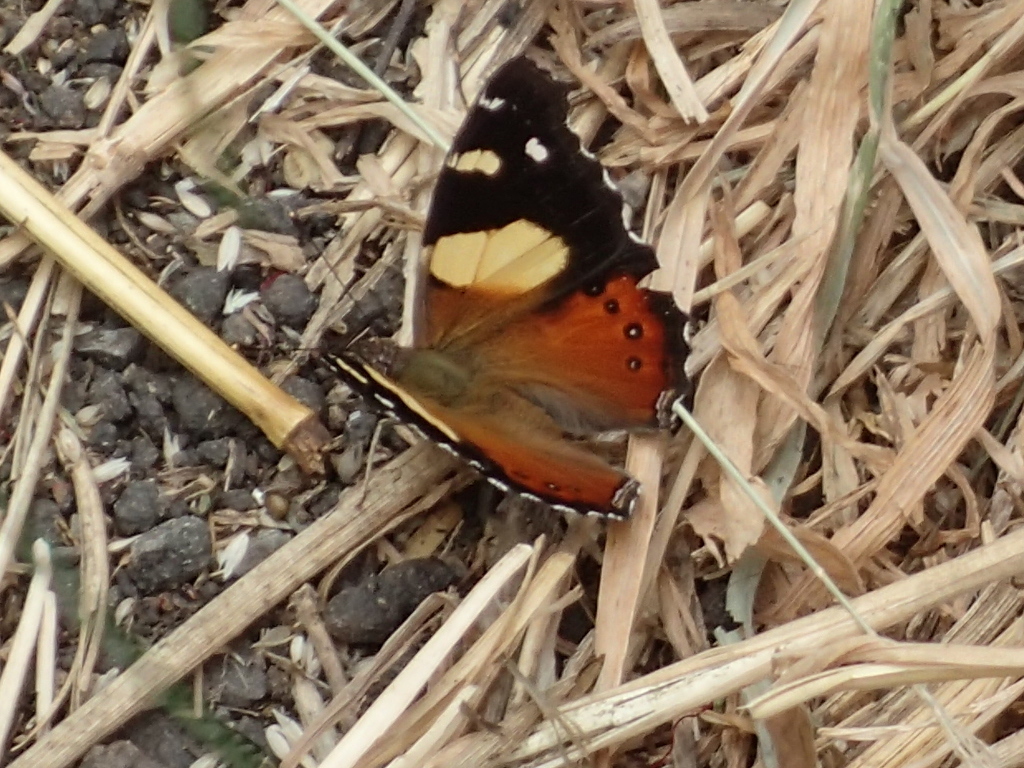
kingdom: Animalia
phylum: Arthropoda
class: Insecta
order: Lepidoptera
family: Nymphalidae
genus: Vanessa
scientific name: Vanessa itea
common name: Yellow admiral
